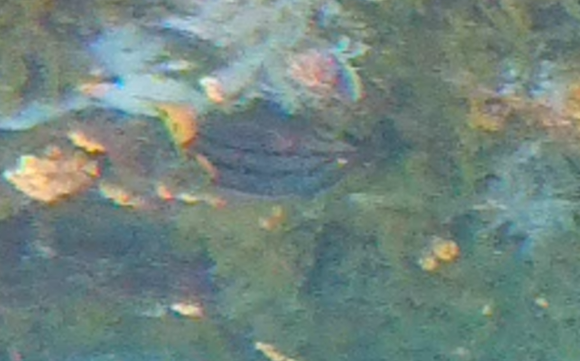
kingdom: Animalia
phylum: Chordata
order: Perciformes
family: Labridae
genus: Bodianus
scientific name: Bodianus diplotaenia
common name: Mexican hogfish
